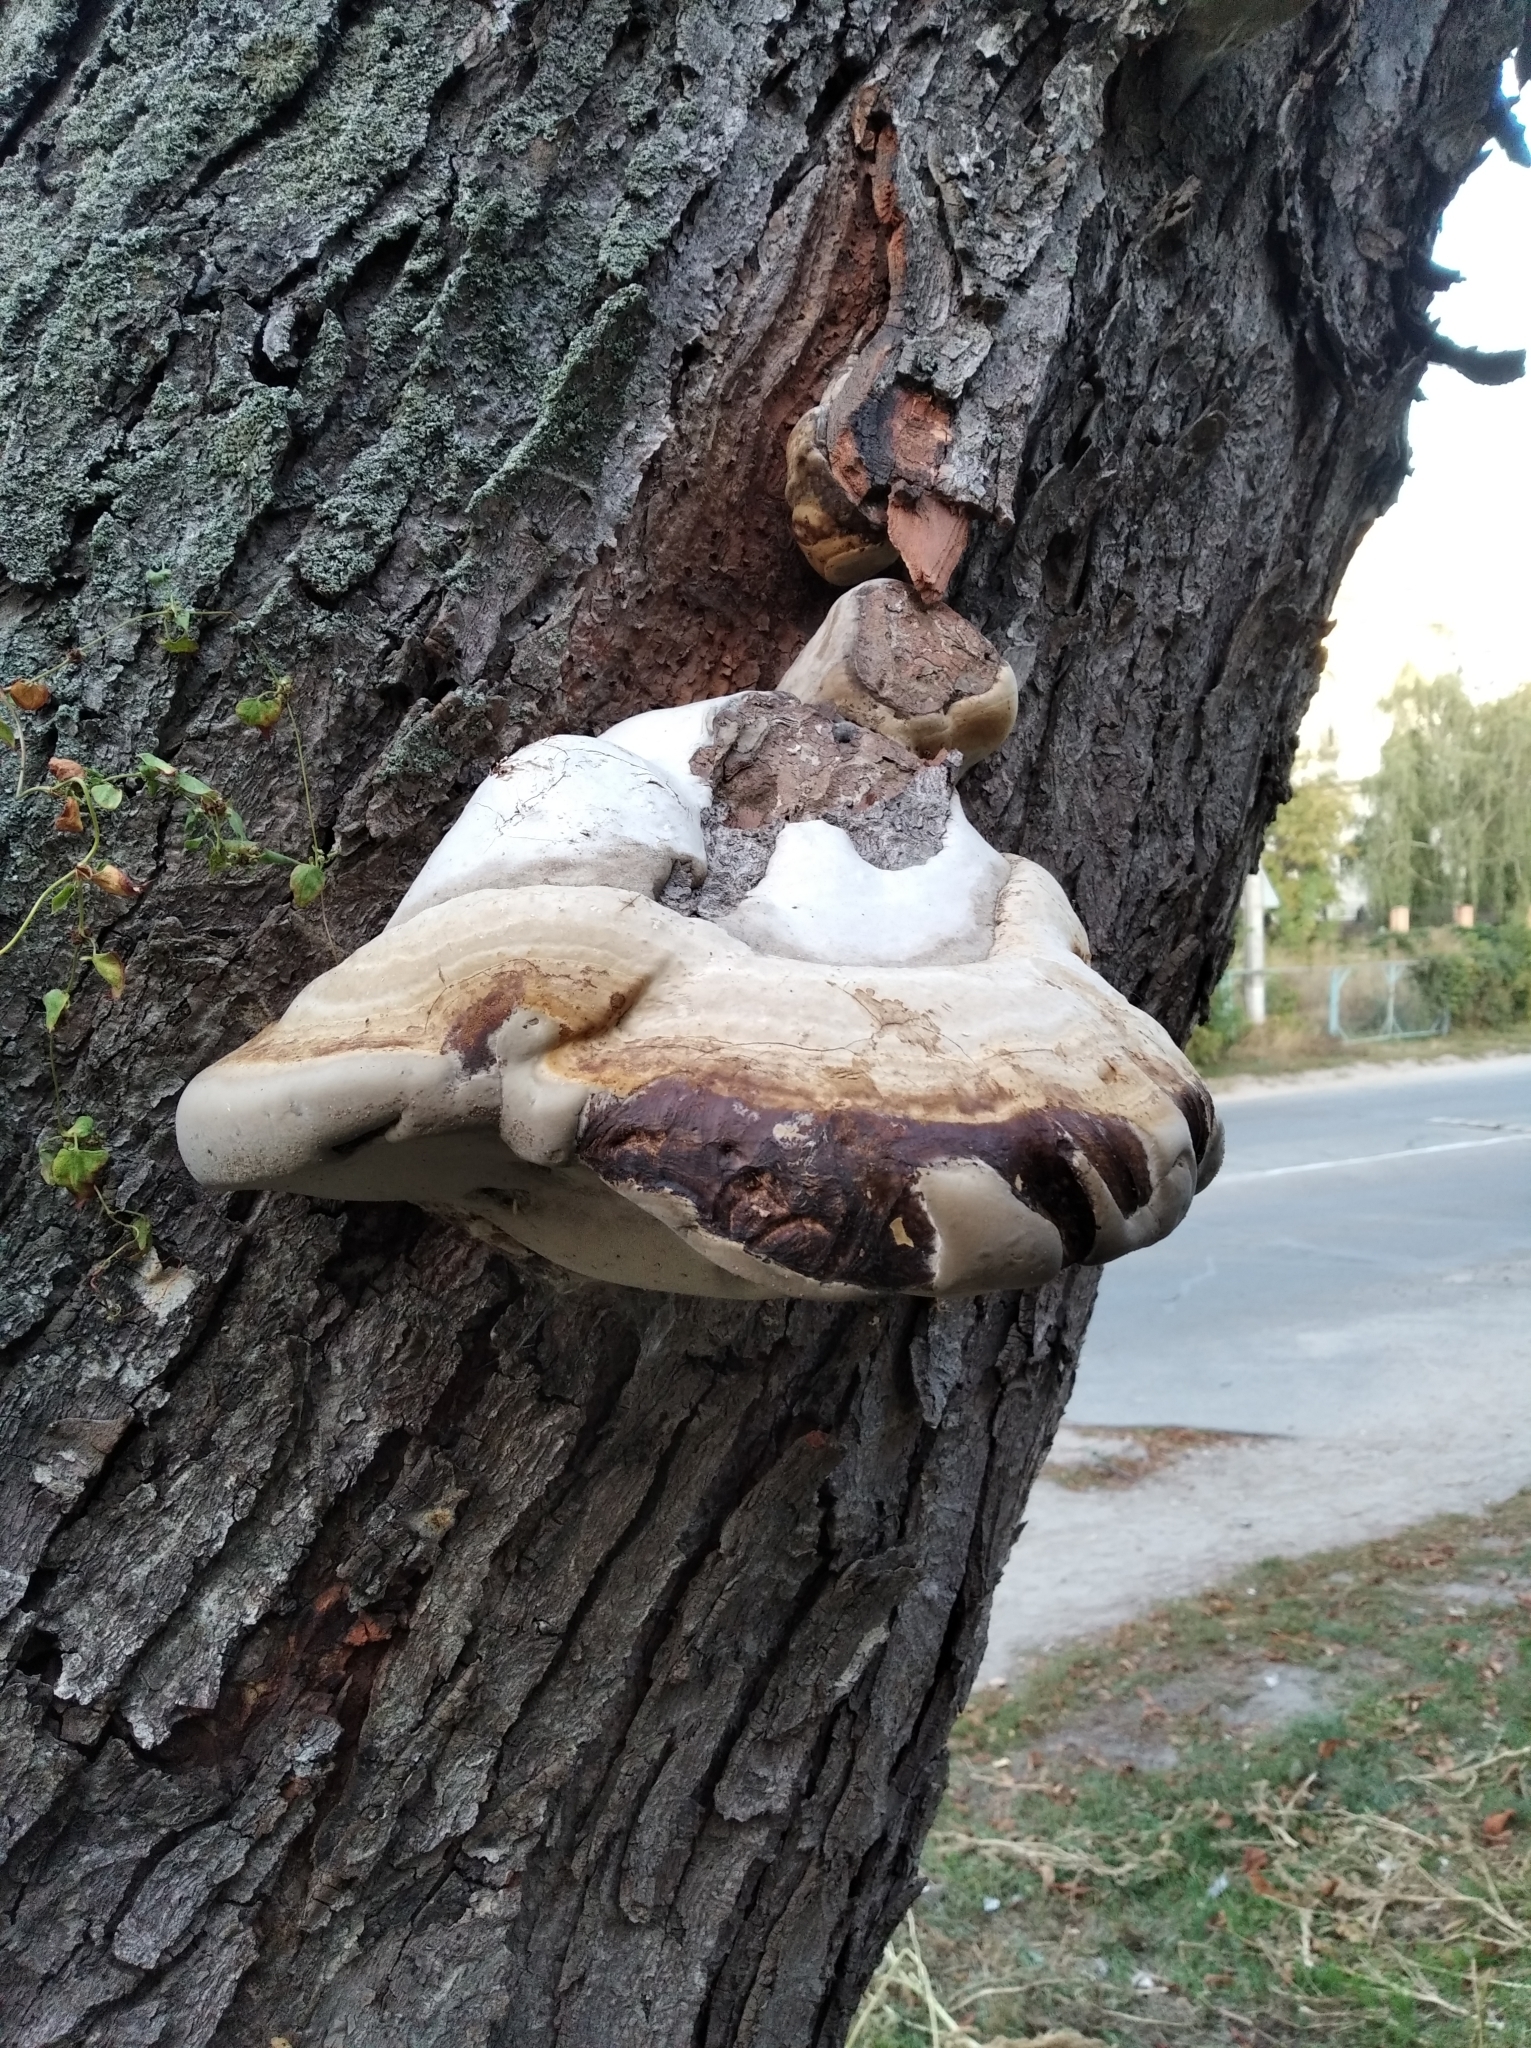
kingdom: Fungi
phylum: Basidiomycota
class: Agaricomycetes
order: Polyporales
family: Polyporaceae
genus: Fomes
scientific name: Fomes fomentarius
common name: Hoof fungus
